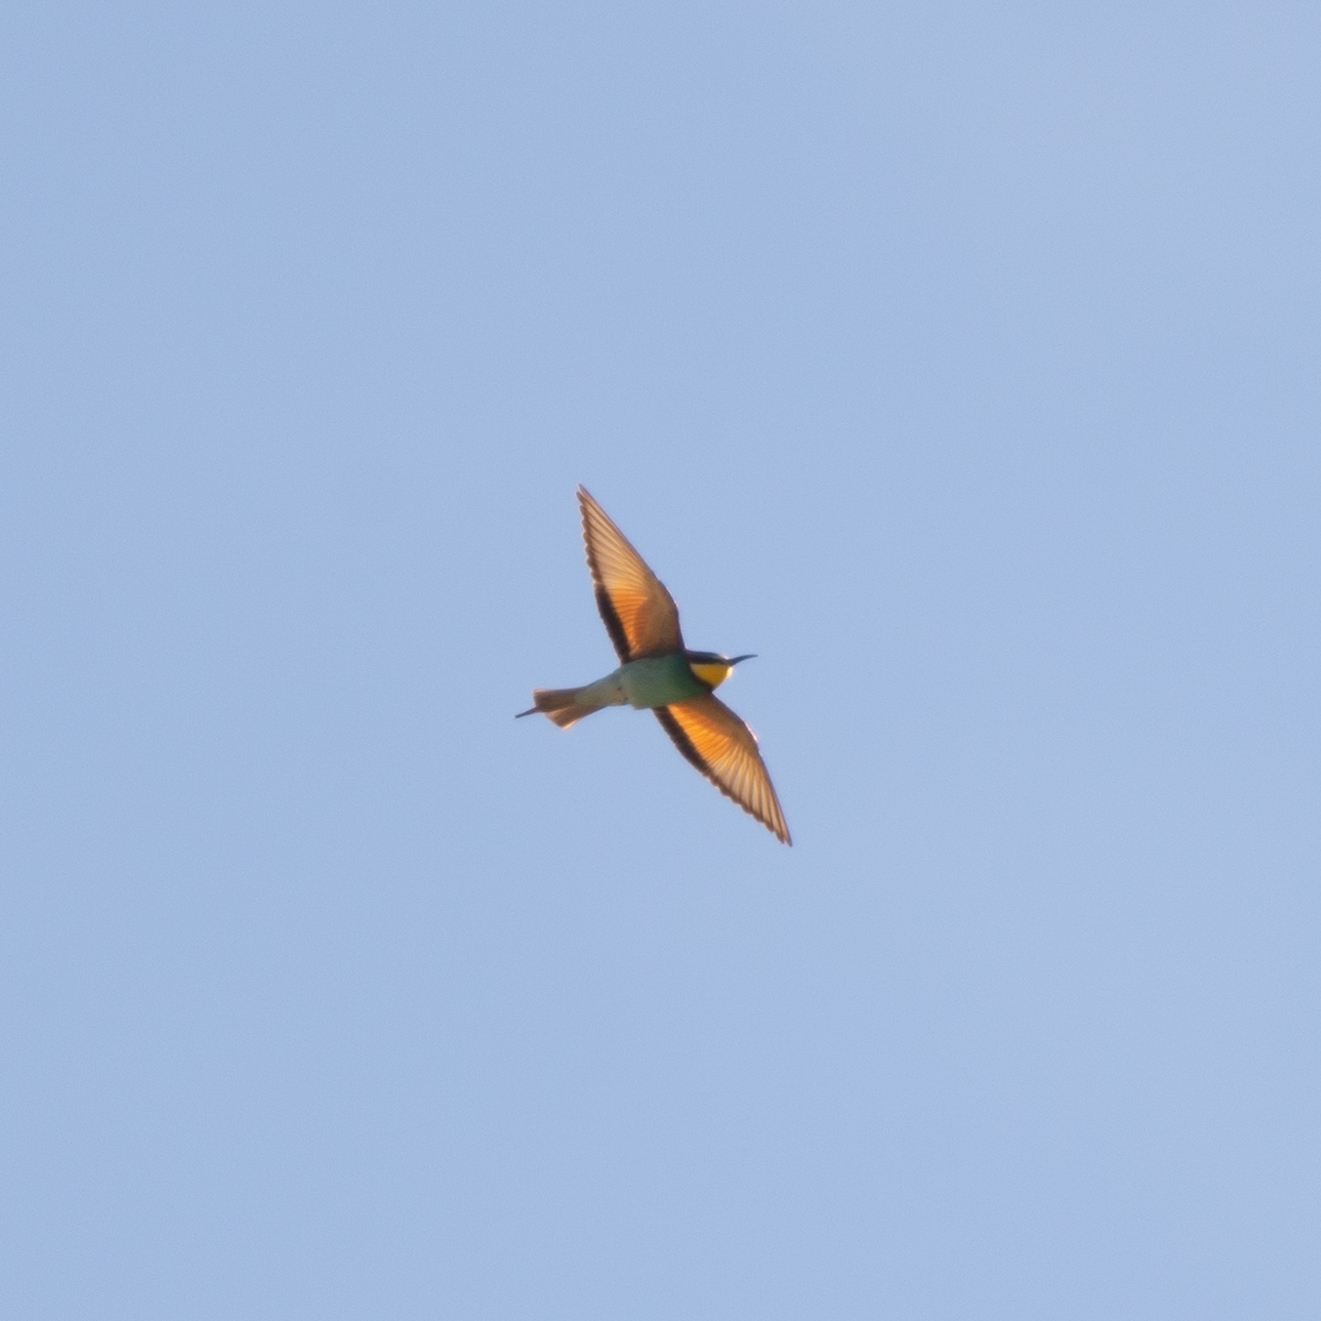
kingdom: Animalia
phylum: Chordata
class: Aves
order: Coraciiformes
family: Meropidae
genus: Merops
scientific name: Merops apiaster
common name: European bee-eater
